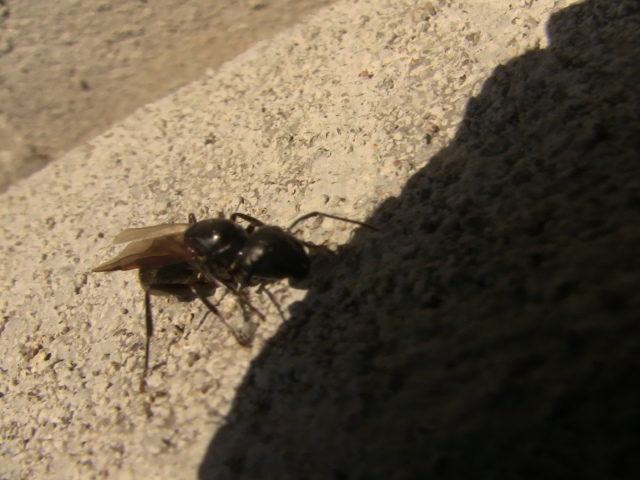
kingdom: Animalia
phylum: Arthropoda
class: Insecta
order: Hymenoptera
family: Formicidae
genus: Camponotus
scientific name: Camponotus pennsylvanicus
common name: Black carpenter ant
